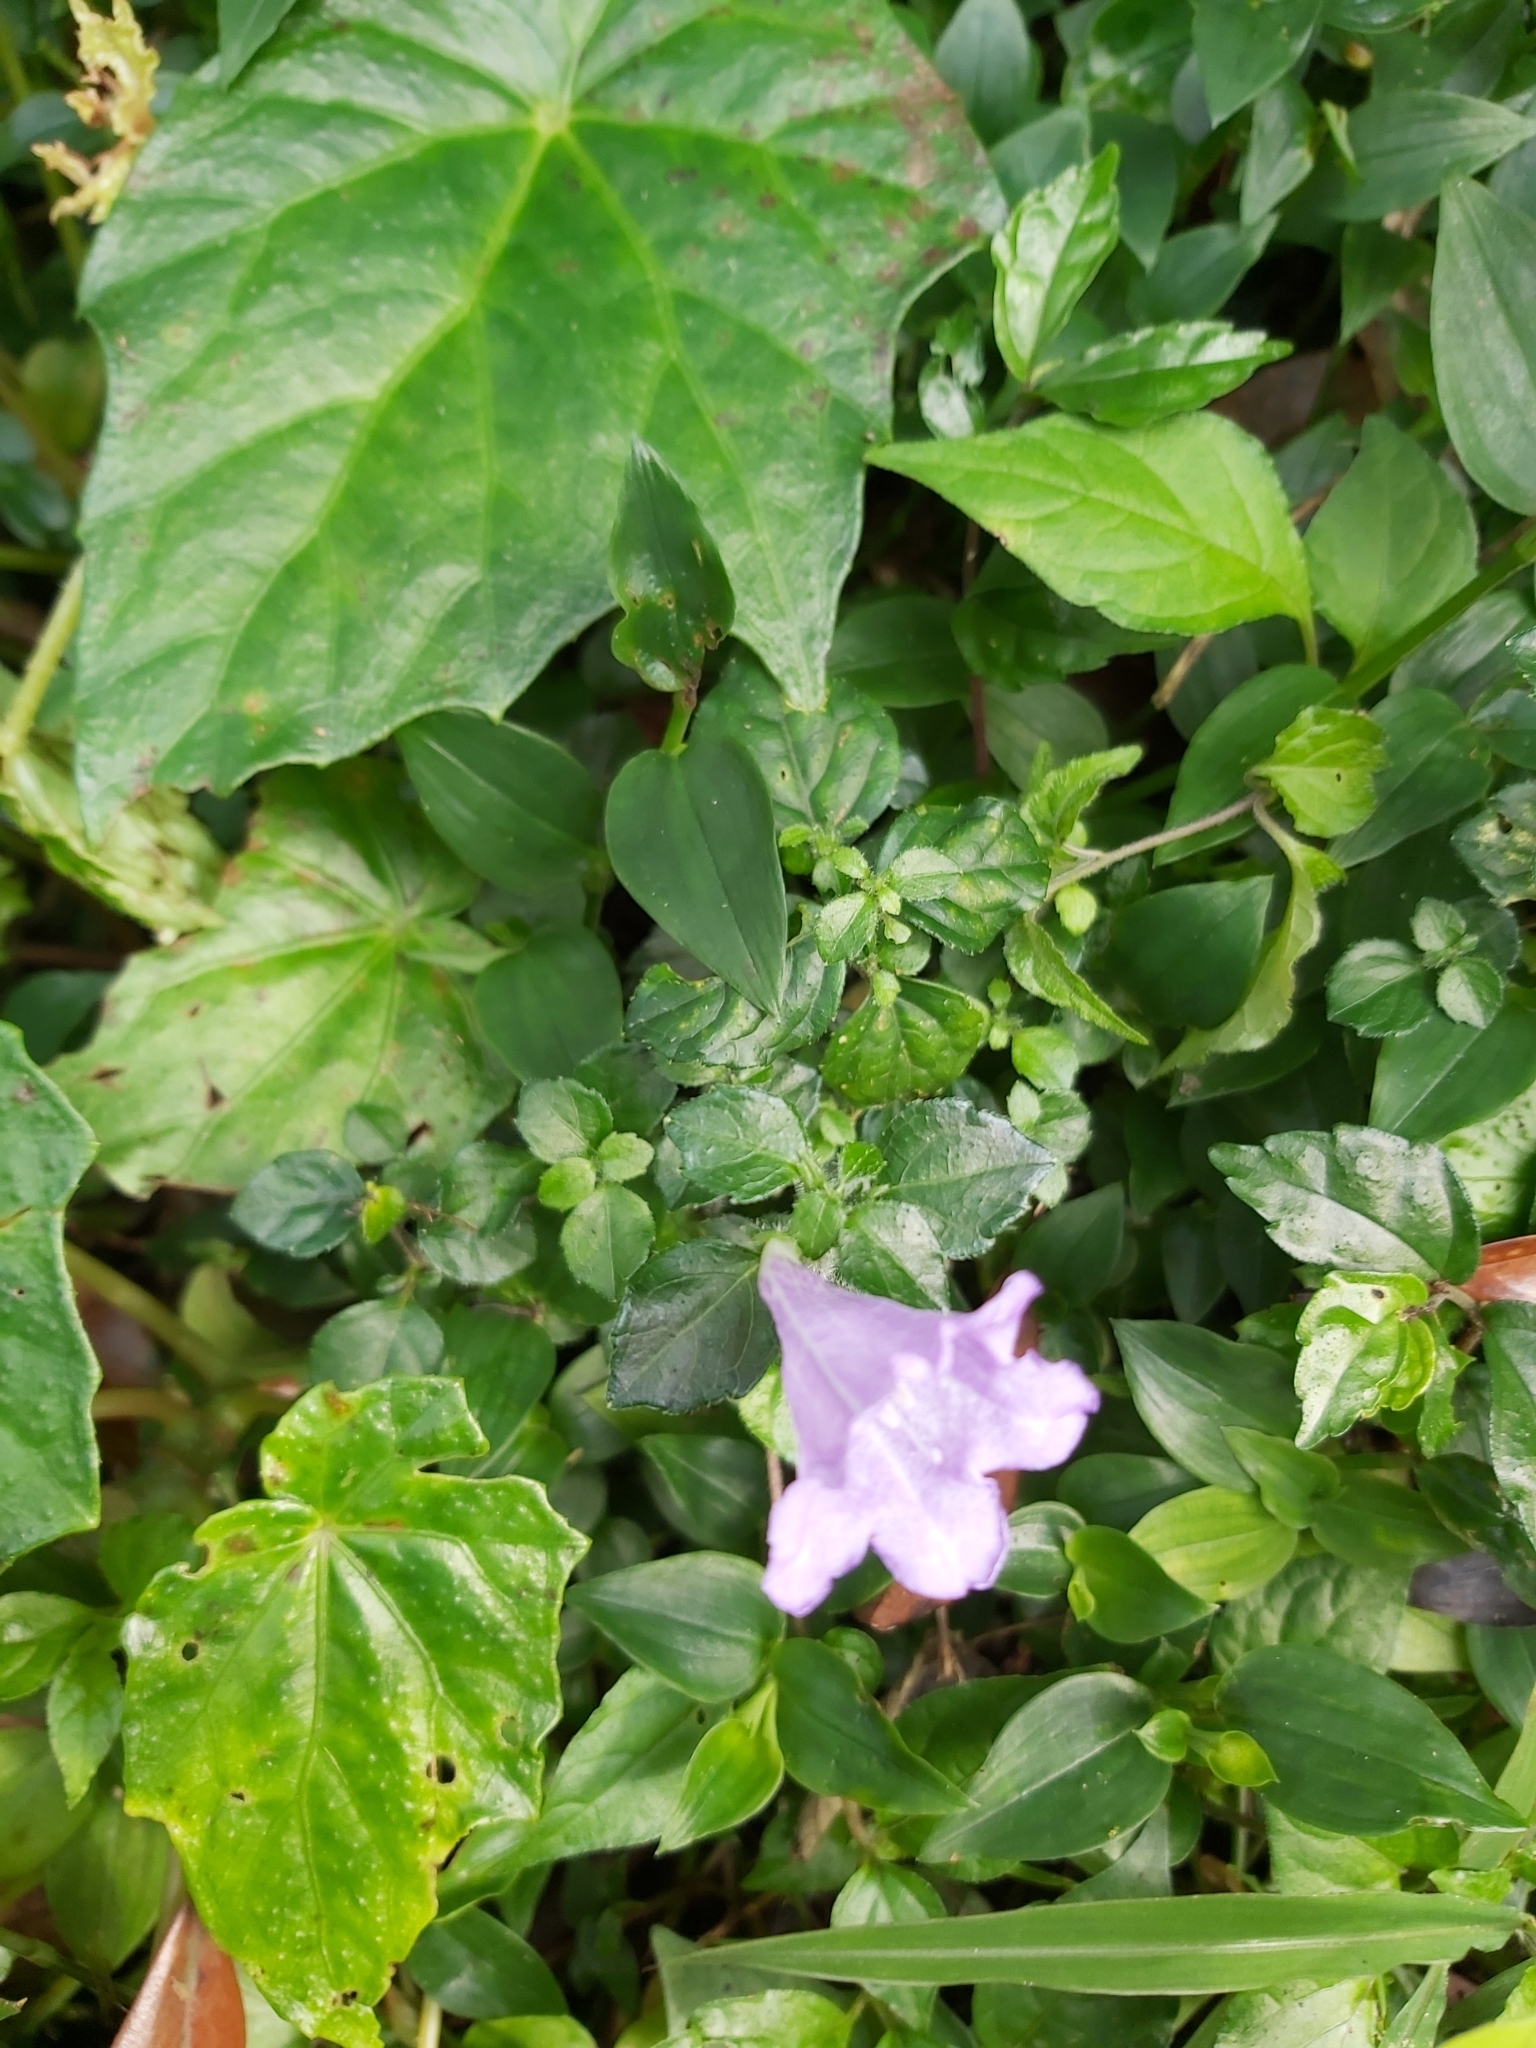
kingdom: Plantae
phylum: Tracheophyta
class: Magnoliopsida
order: Lamiales
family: Acanthaceae
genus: Strobilanthes
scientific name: Strobilanthes rankanensis
